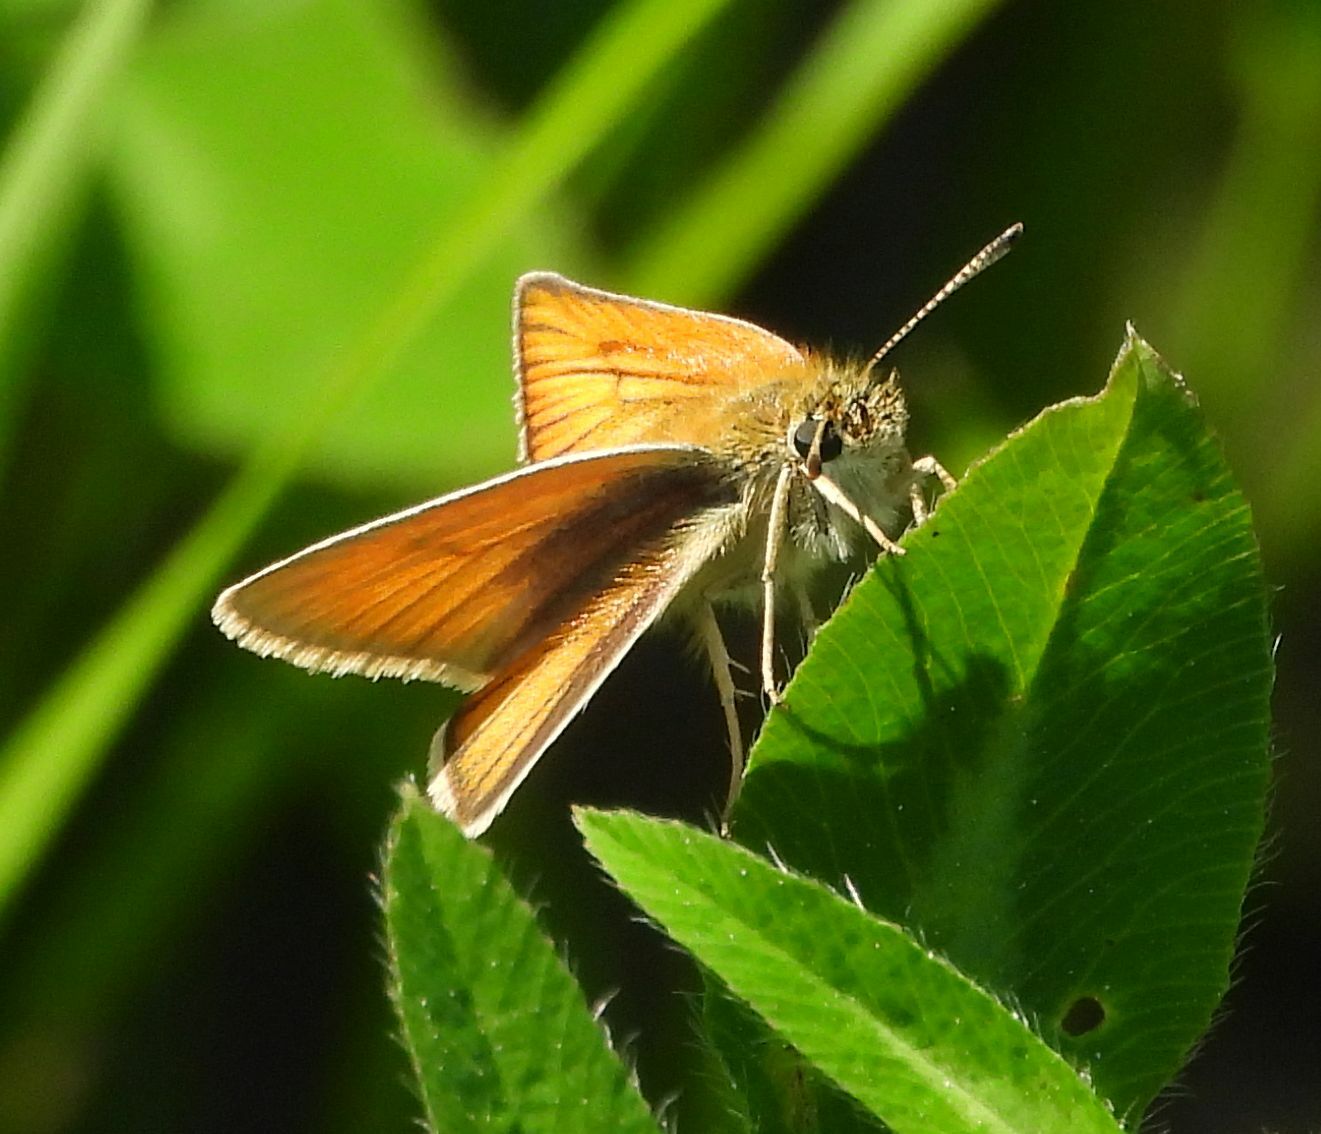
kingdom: Animalia
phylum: Arthropoda
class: Insecta
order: Lepidoptera
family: Hesperiidae
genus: Thymelicus
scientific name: Thymelicus lineola
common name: Essex skipper
